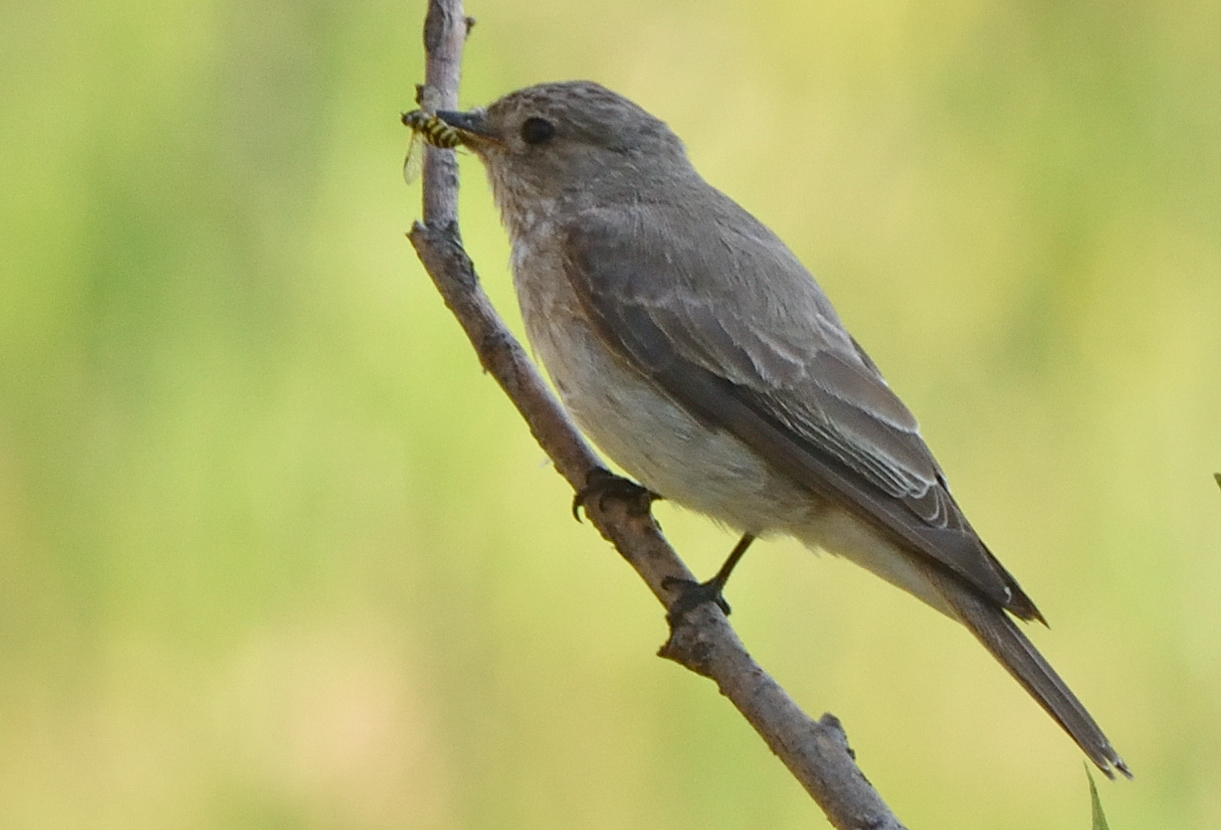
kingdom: Animalia
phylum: Chordata
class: Aves
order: Passeriformes
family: Muscicapidae
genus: Muscicapa
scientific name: Muscicapa striata
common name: Spotted flycatcher
